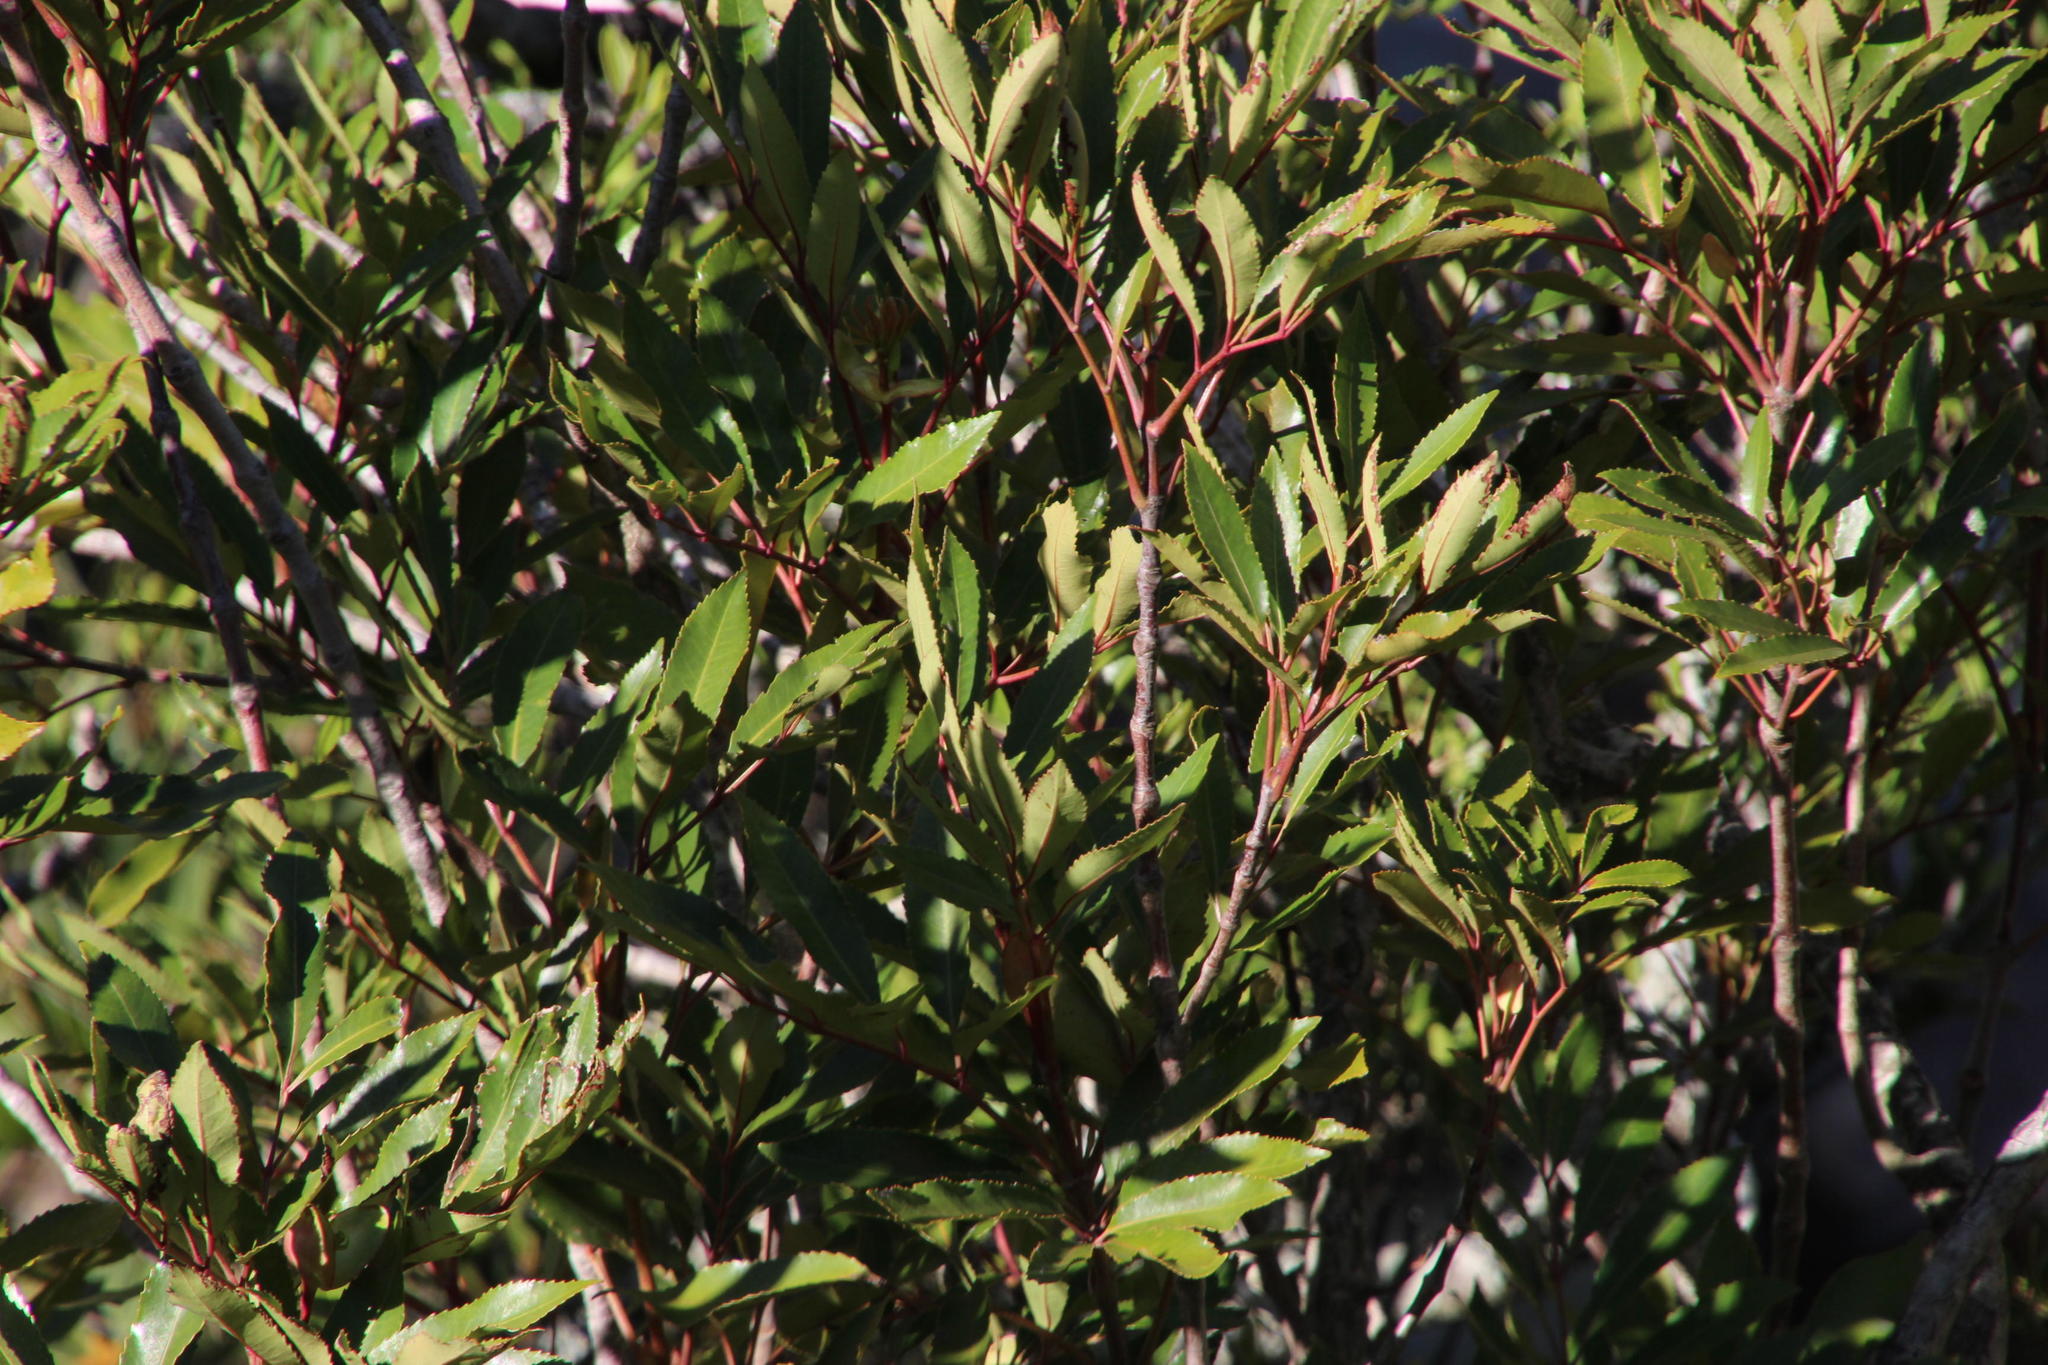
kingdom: Plantae
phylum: Tracheophyta
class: Magnoliopsida
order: Oxalidales
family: Cunoniaceae
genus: Cunonia
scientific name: Cunonia capensis
